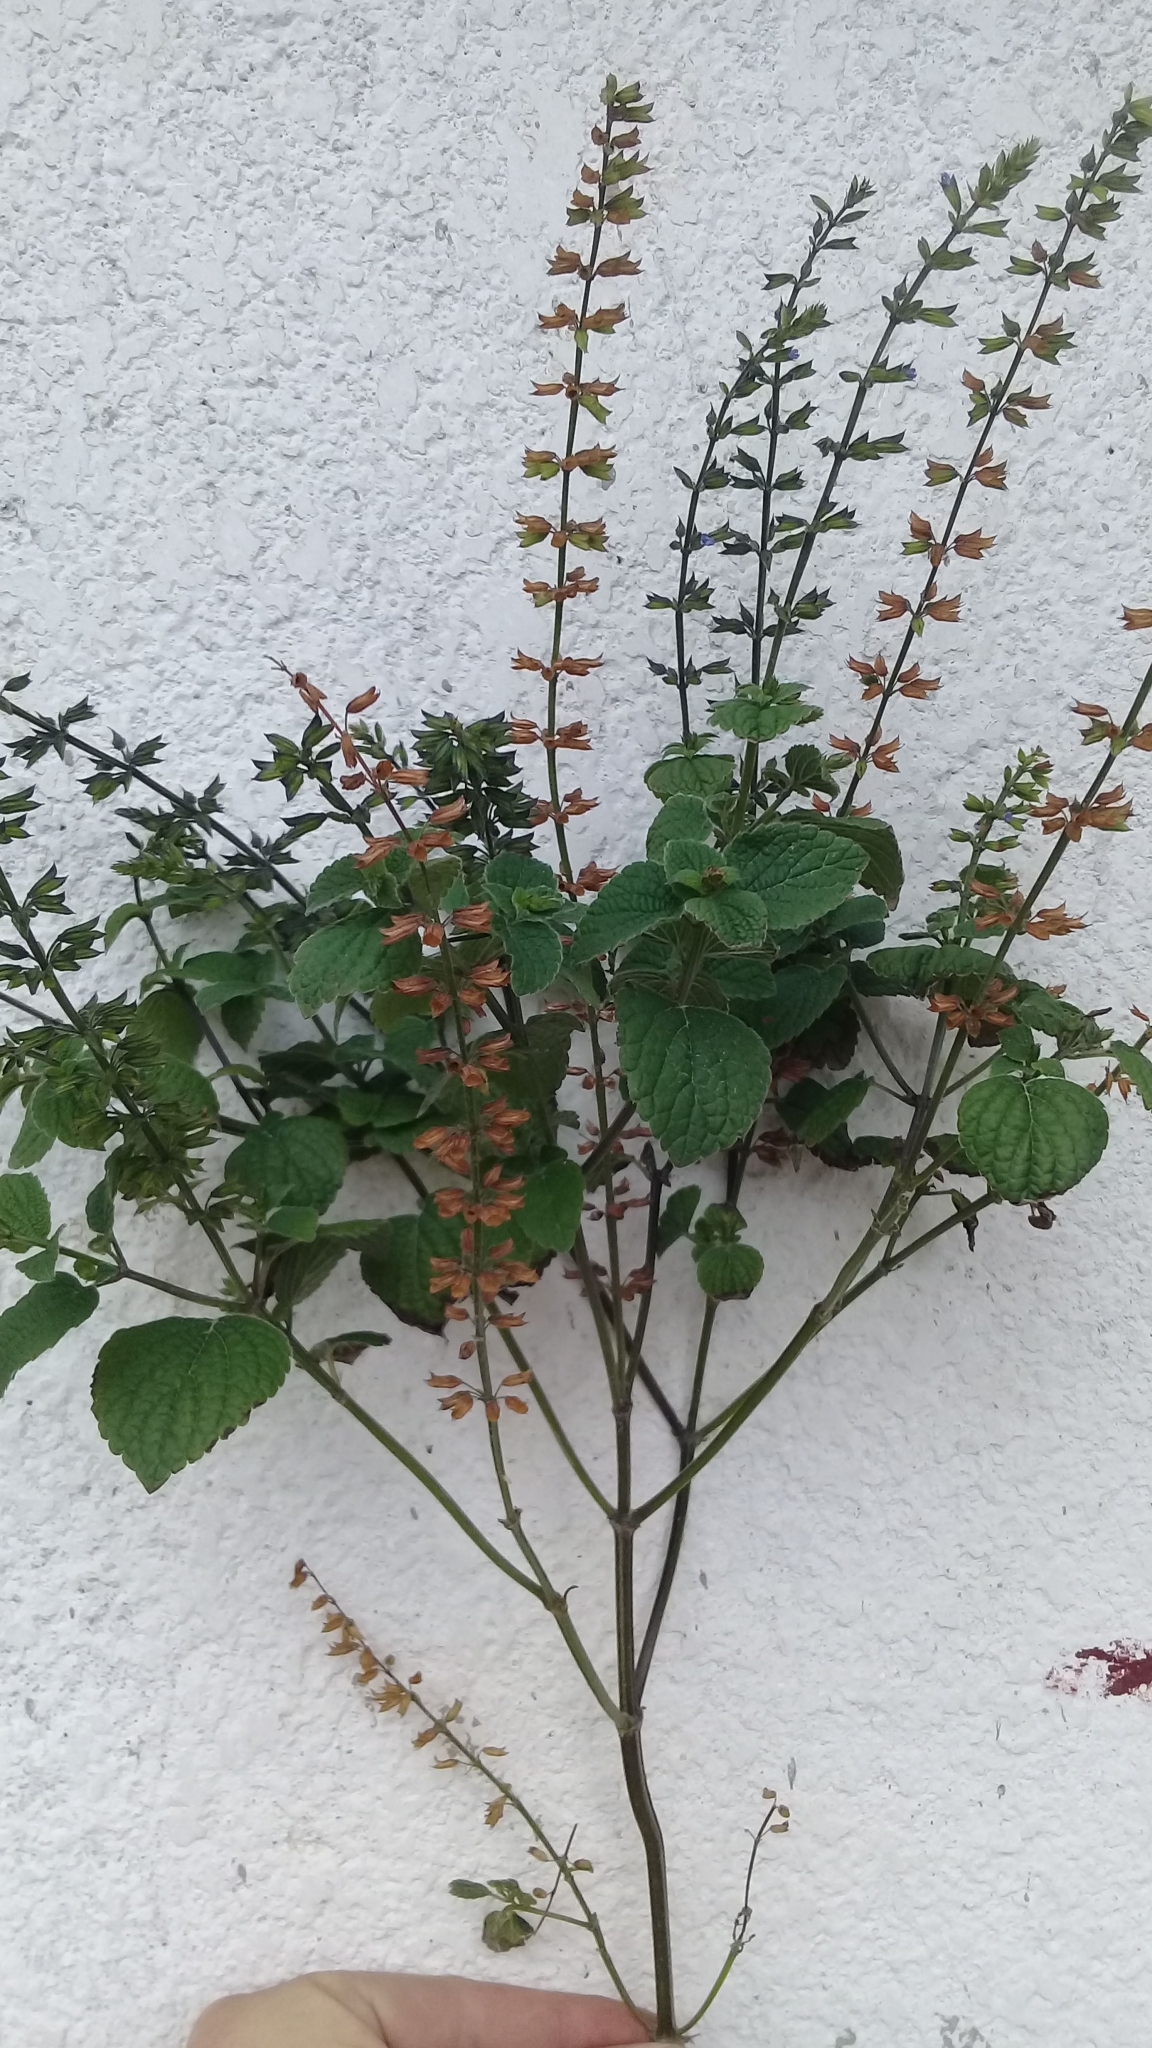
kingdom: Plantae
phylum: Tracheophyta
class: Magnoliopsida
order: Lamiales
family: Lamiaceae
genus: Salvia
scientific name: Salvia tiliifolia
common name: Lindenleaf sage
